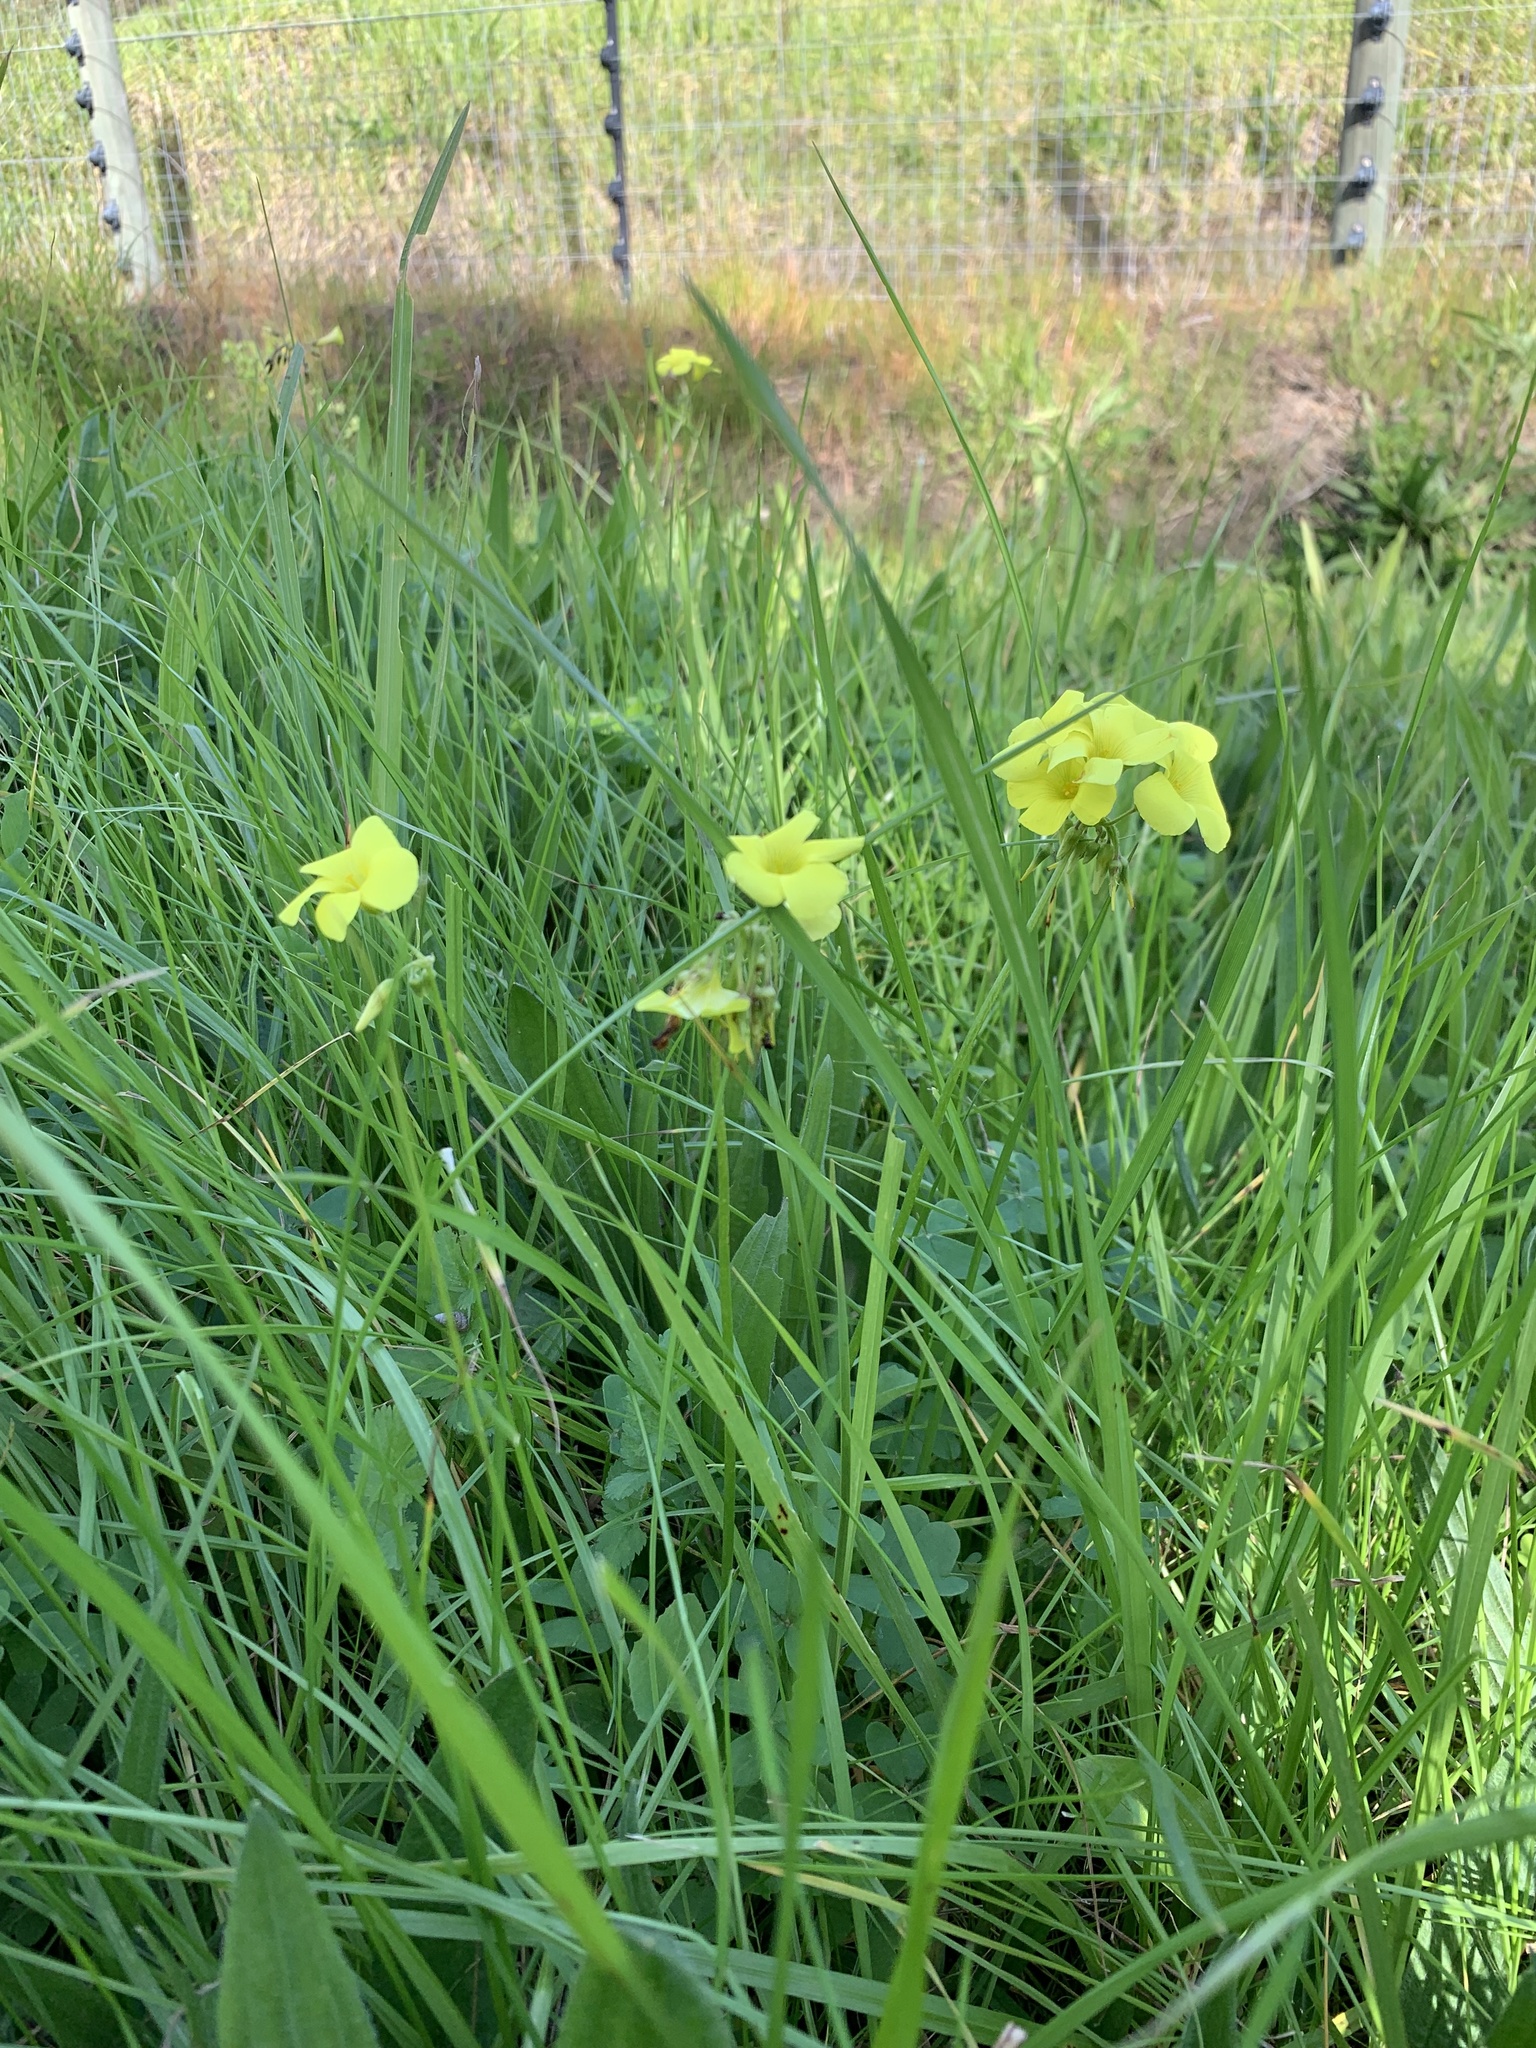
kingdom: Plantae
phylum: Tracheophyta
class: Magnoliopsida
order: Oxalidales
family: Oxalidaceae
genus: Oxalis
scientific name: Oxalis pes-caprae
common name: Bermuda-buttercup
